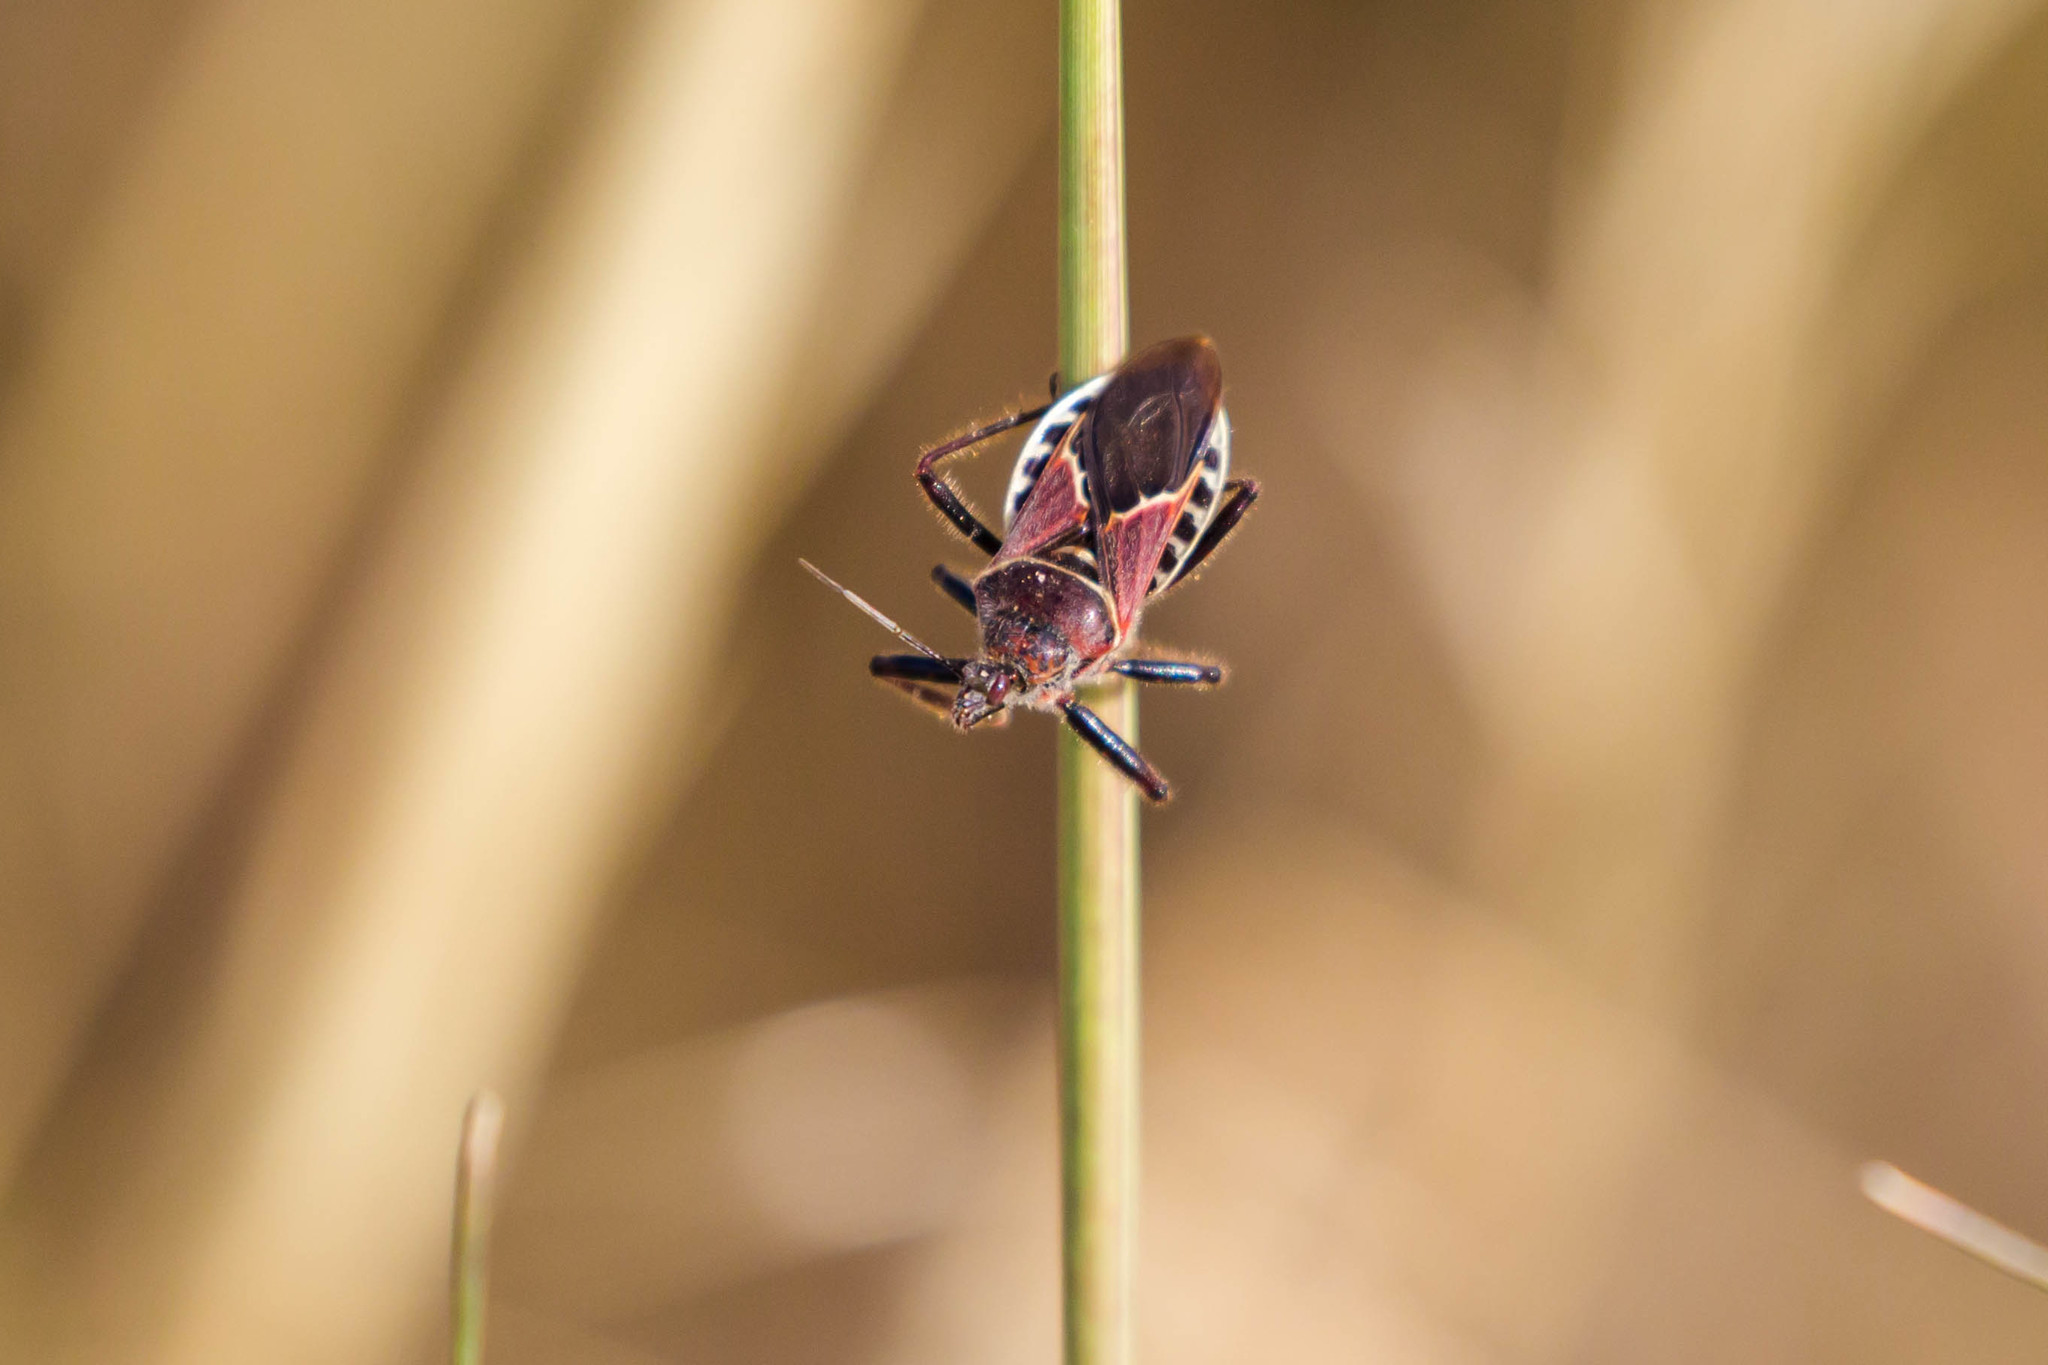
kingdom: Animalia
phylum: Arthropoda
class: Insecta
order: Hemiptera
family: Reduviidae
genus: Apiomerus
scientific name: Apiomerus spissipes
